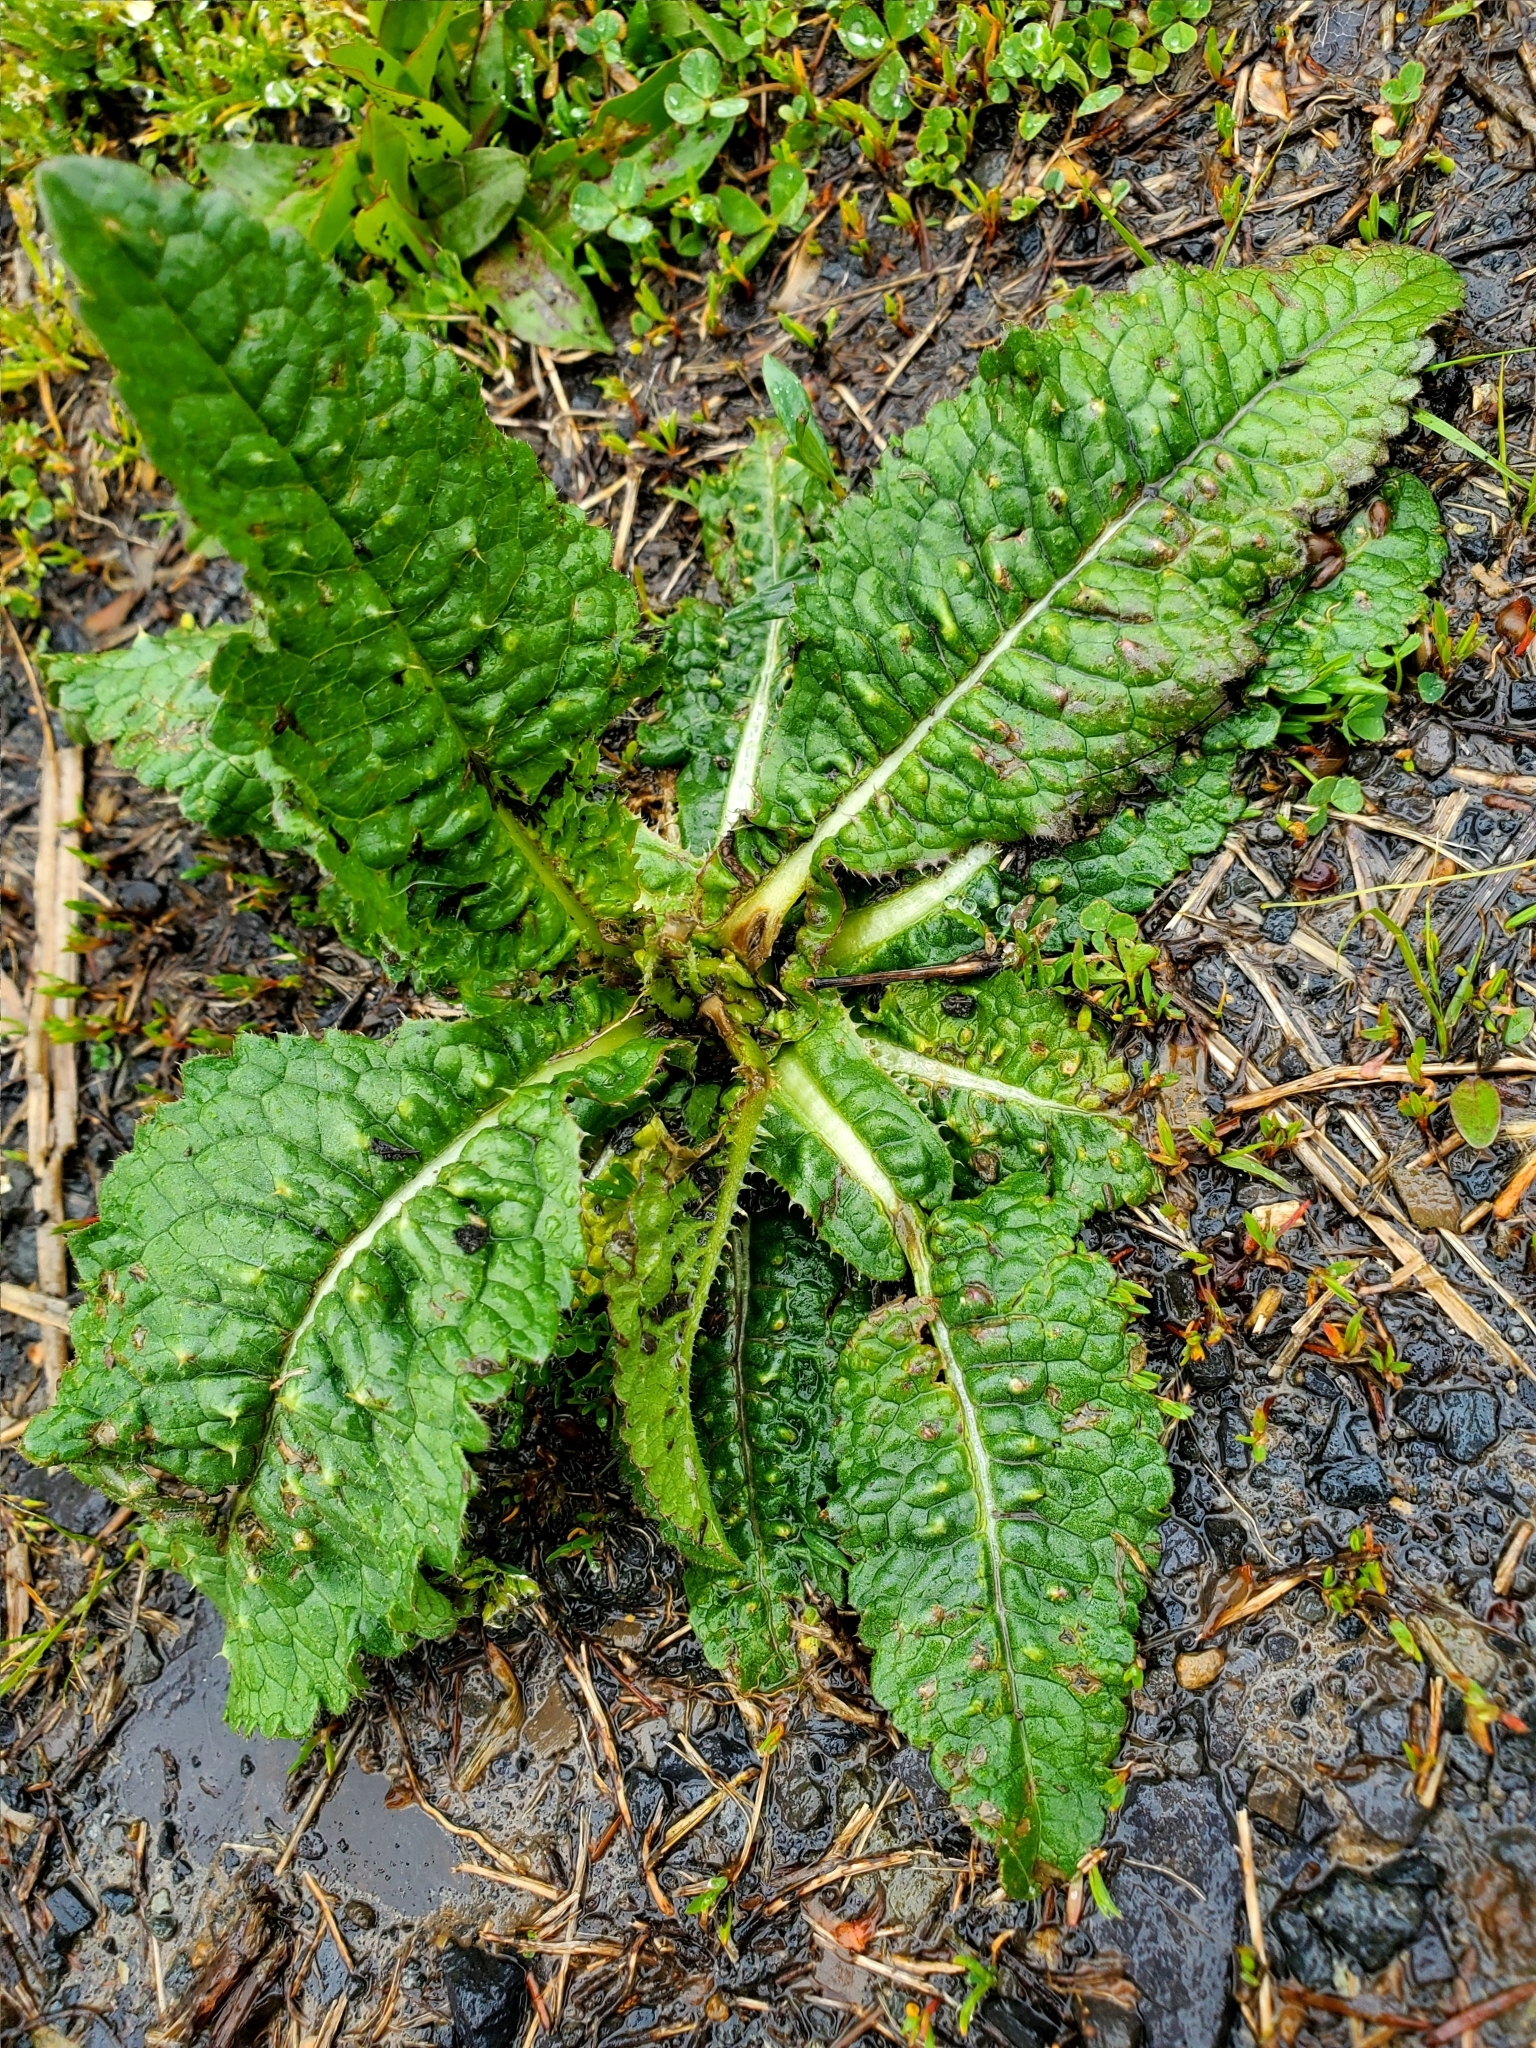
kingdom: Plantae
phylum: Tracheophyta
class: Magnoliopsida
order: Dipsacales
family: Caprifoliaceae
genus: Dipsacus
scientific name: Dipsacus fullonum
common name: Teasel
